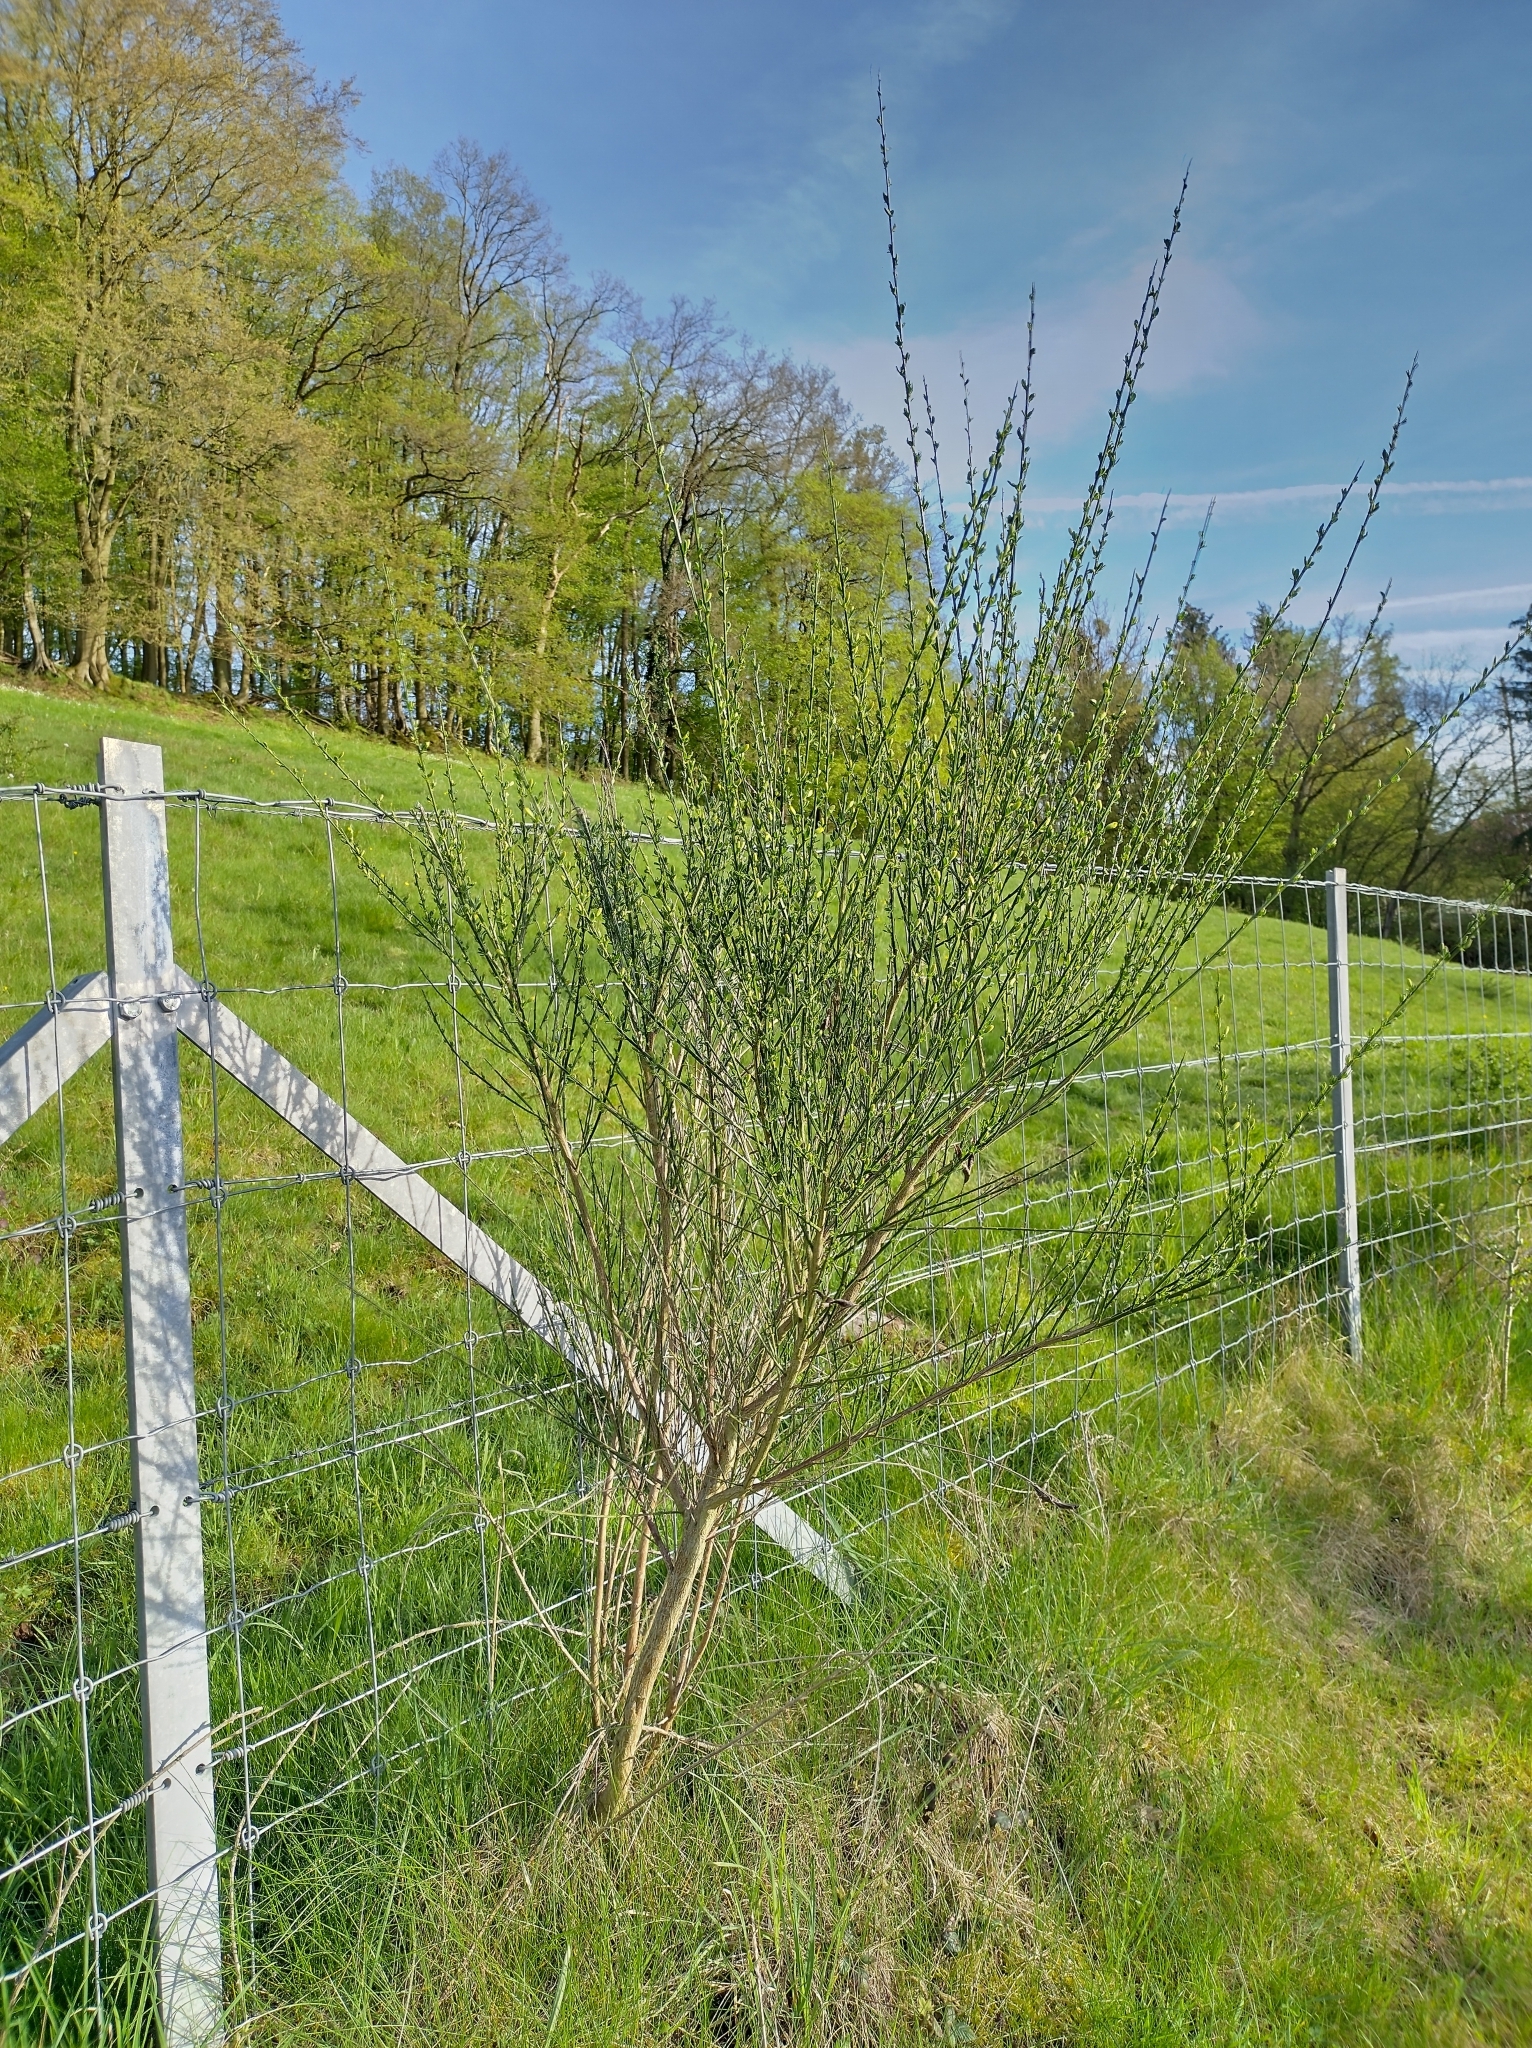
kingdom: Plantae
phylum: Tracheophyta
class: Magnoliopsida
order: Fabales
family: Fabaceae
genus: Cytisus
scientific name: Cytisus scoparius
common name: Scotch broom
